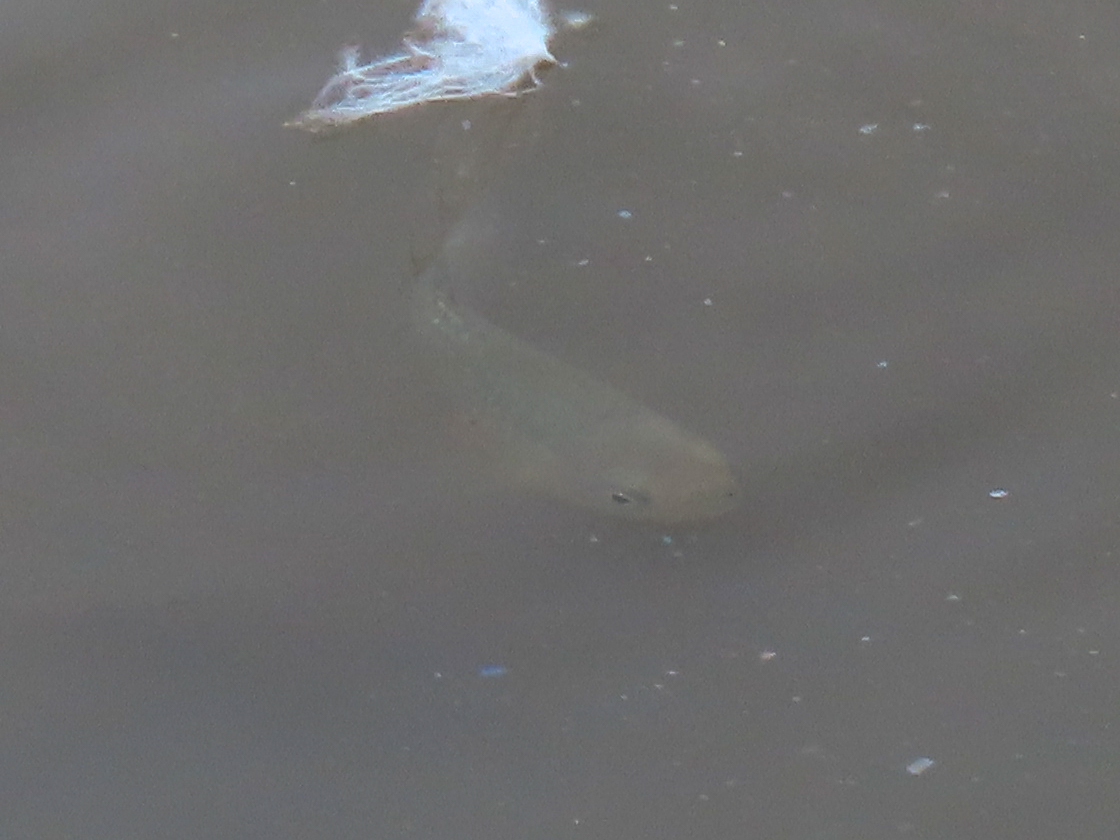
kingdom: Animalia
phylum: Chordata
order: Cyprinodontiformes
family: Fundulidae
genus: Fundulus
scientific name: Fundulus heteroclitus
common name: Mummichog
